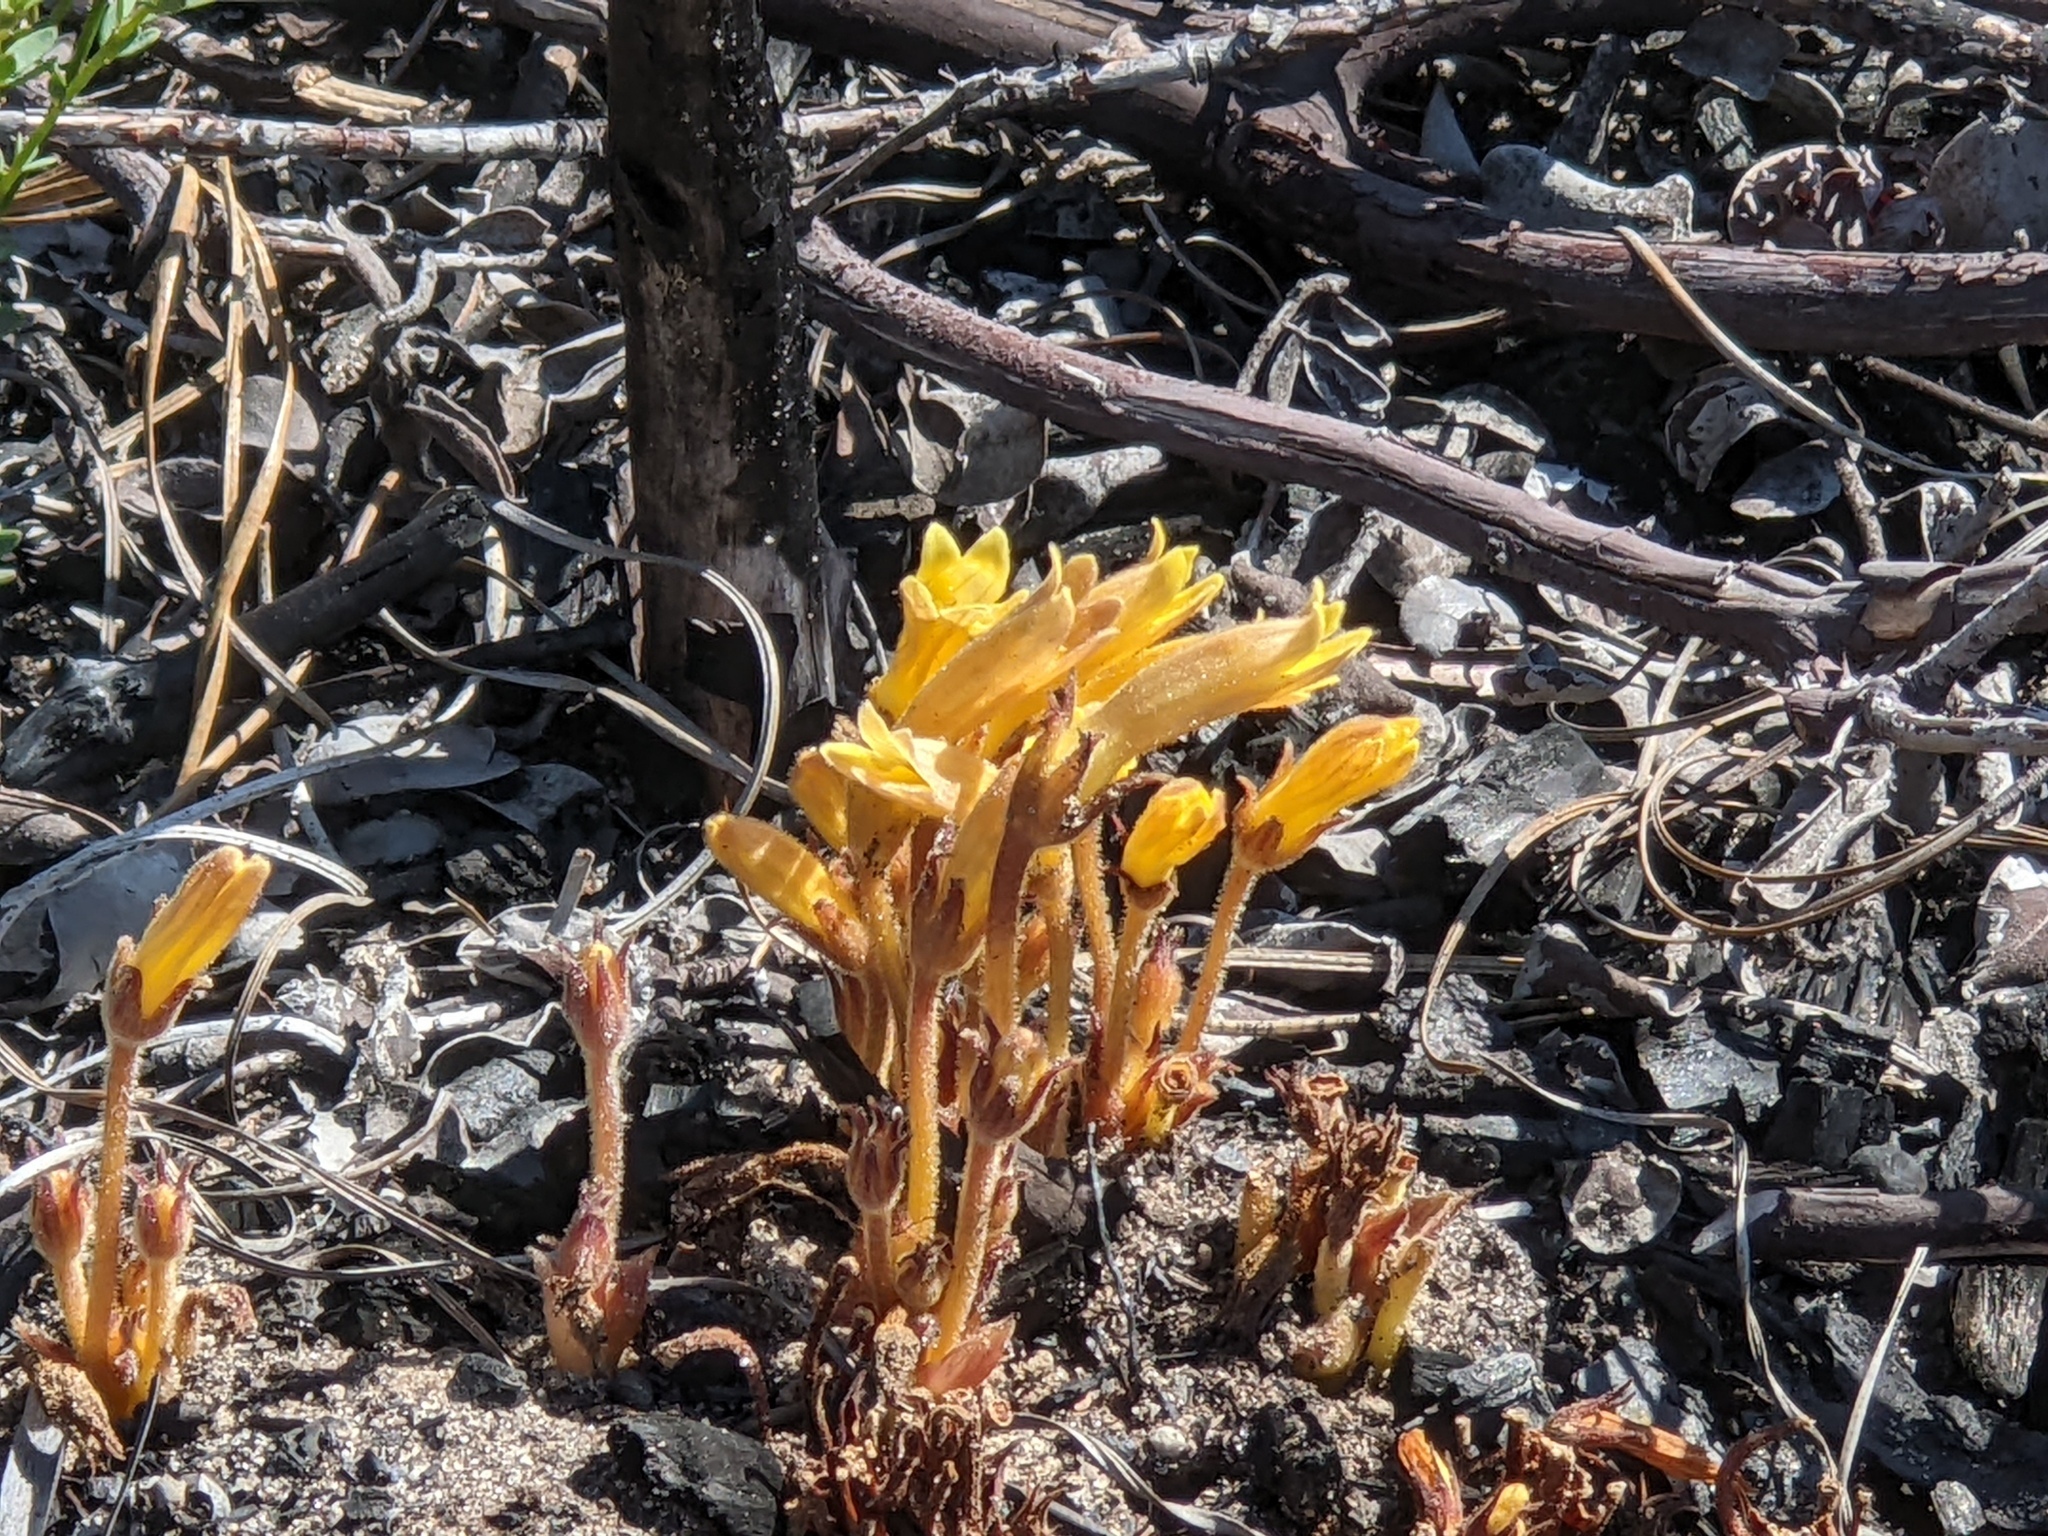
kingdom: Plantae
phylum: Tracheophyta
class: Magnoliopsida
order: Lamiales
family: Orobanchaceae
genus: Aphyllon
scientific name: Aphyllon franciscanum
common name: San francisco broomrape
